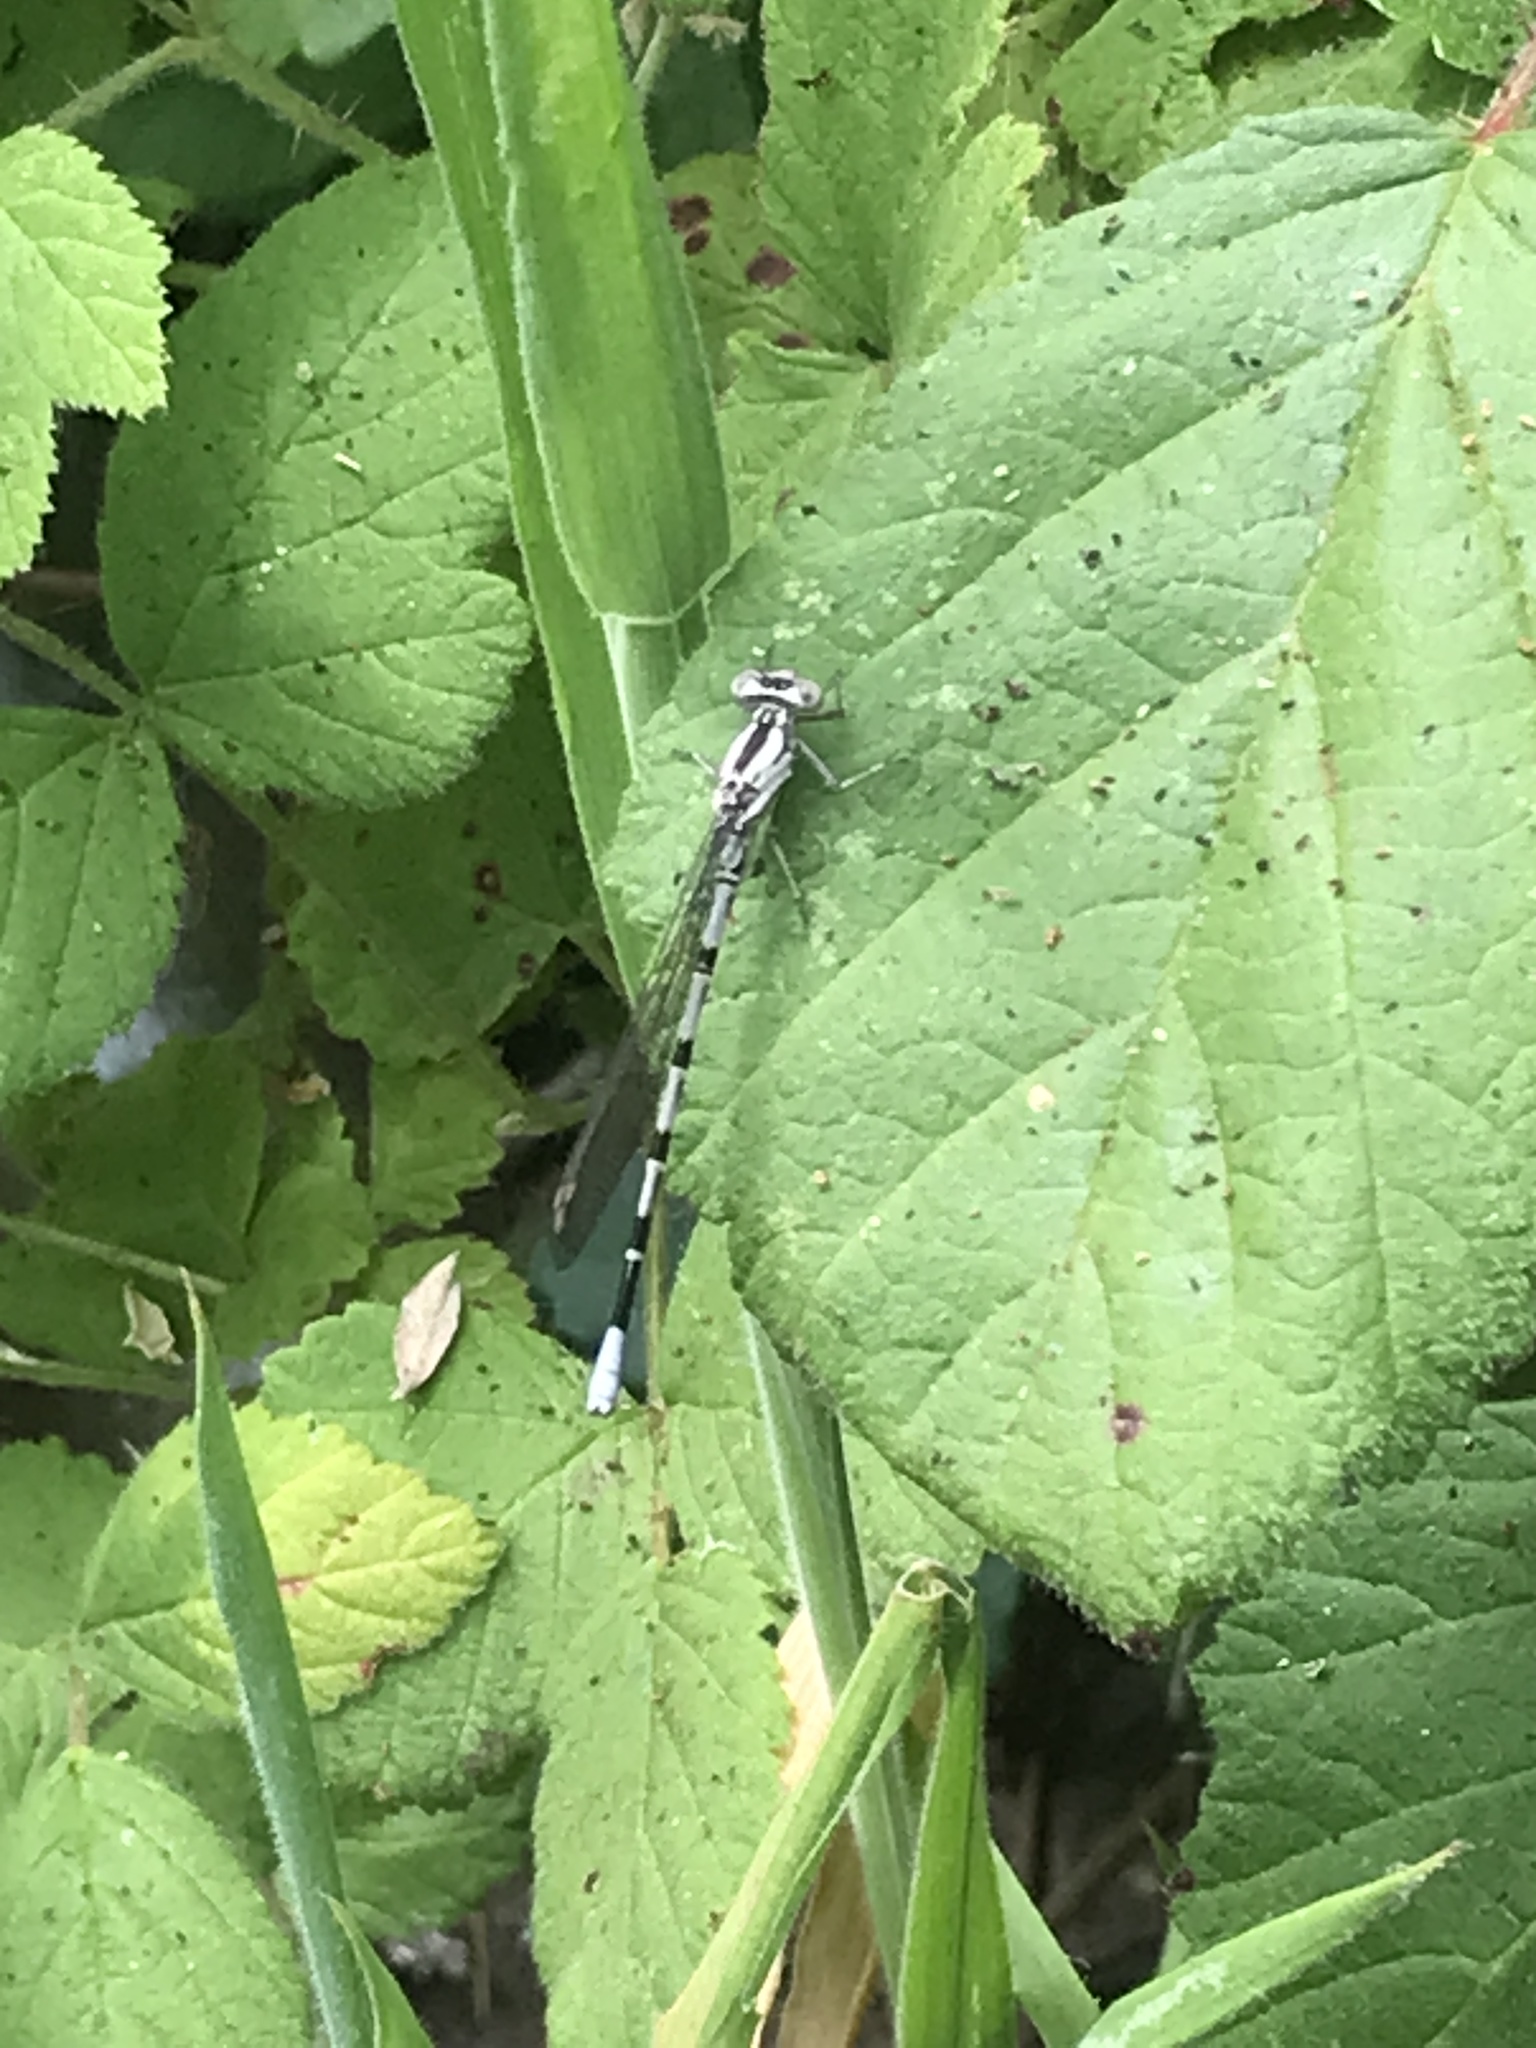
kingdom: Animalia
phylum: Arthropoda
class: Insecta
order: Odonata
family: Coenagrionidae
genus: Argia
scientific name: Argia vivida
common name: Vivid dancer
